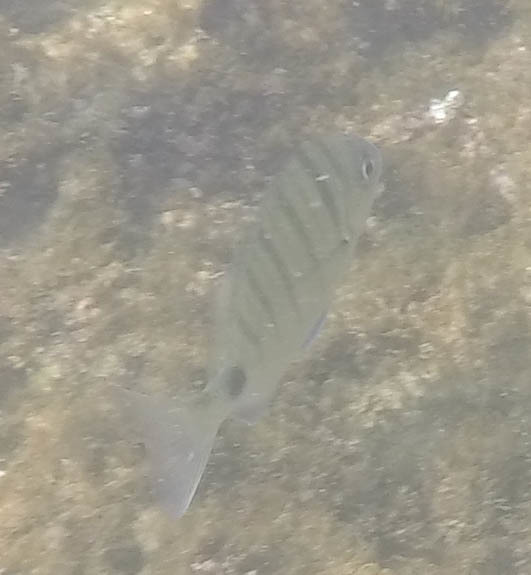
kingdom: Animalia
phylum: Chordata
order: Perciformes
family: Sparidae
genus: Diplodus
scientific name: Diplodus cadenati
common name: Moroccan white seabream
